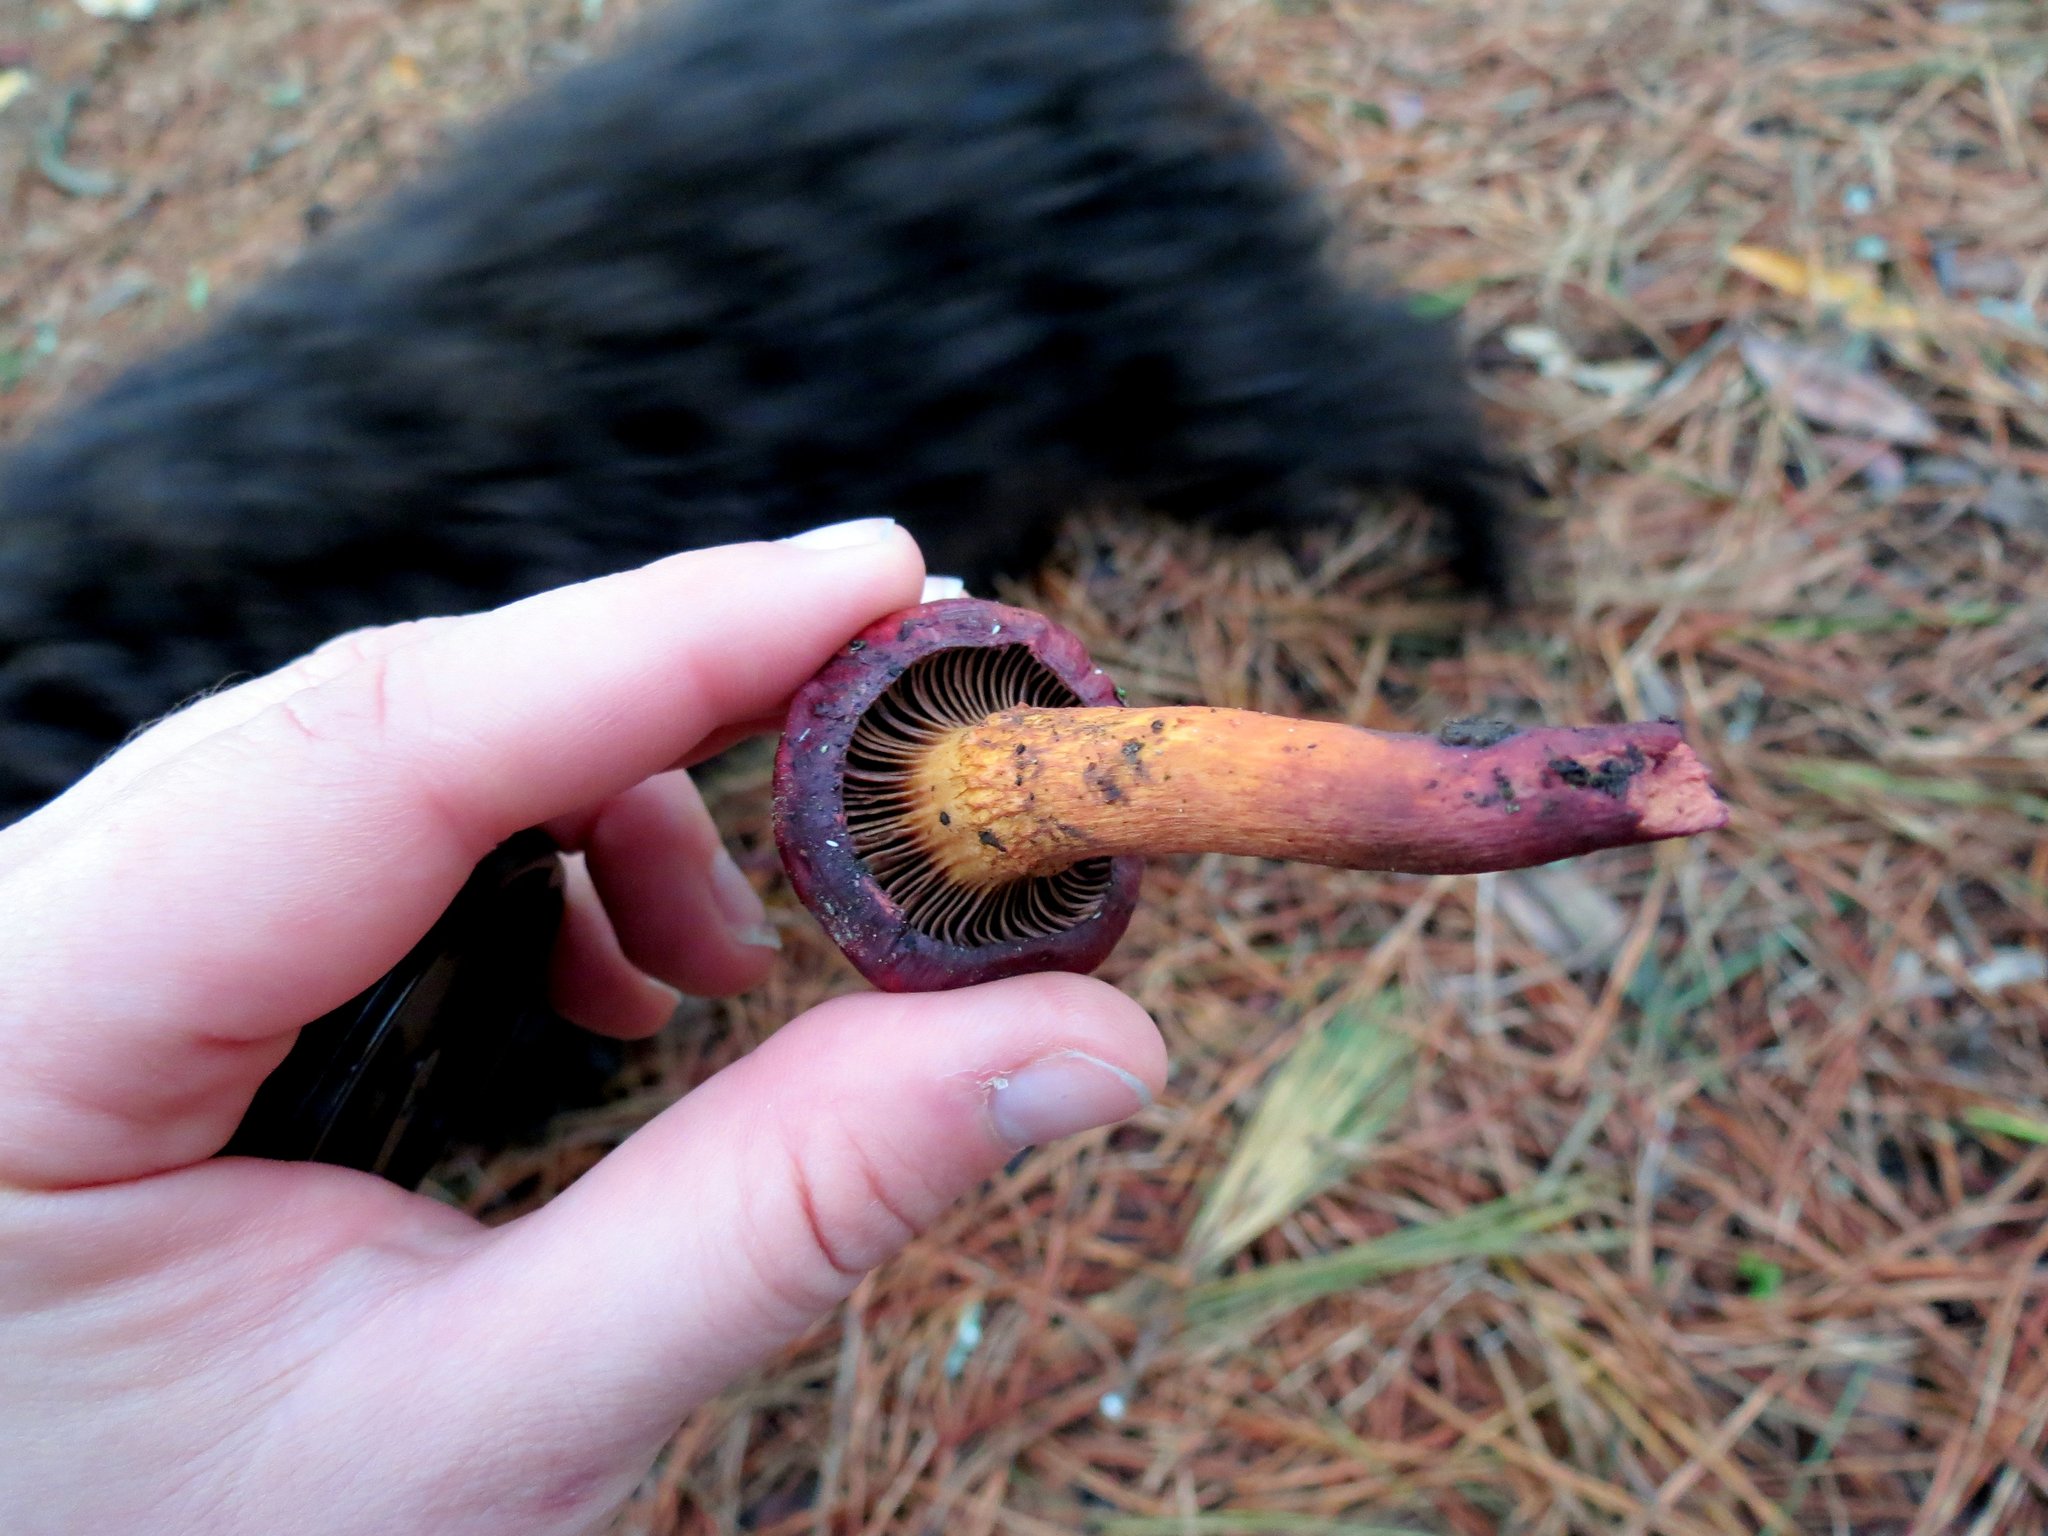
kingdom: Fungi
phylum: Basidiomycota
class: Agaricomycetes
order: Boletales
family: Gomphidiaceae
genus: Chroogomphus
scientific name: Chroogomphus vinicolor
